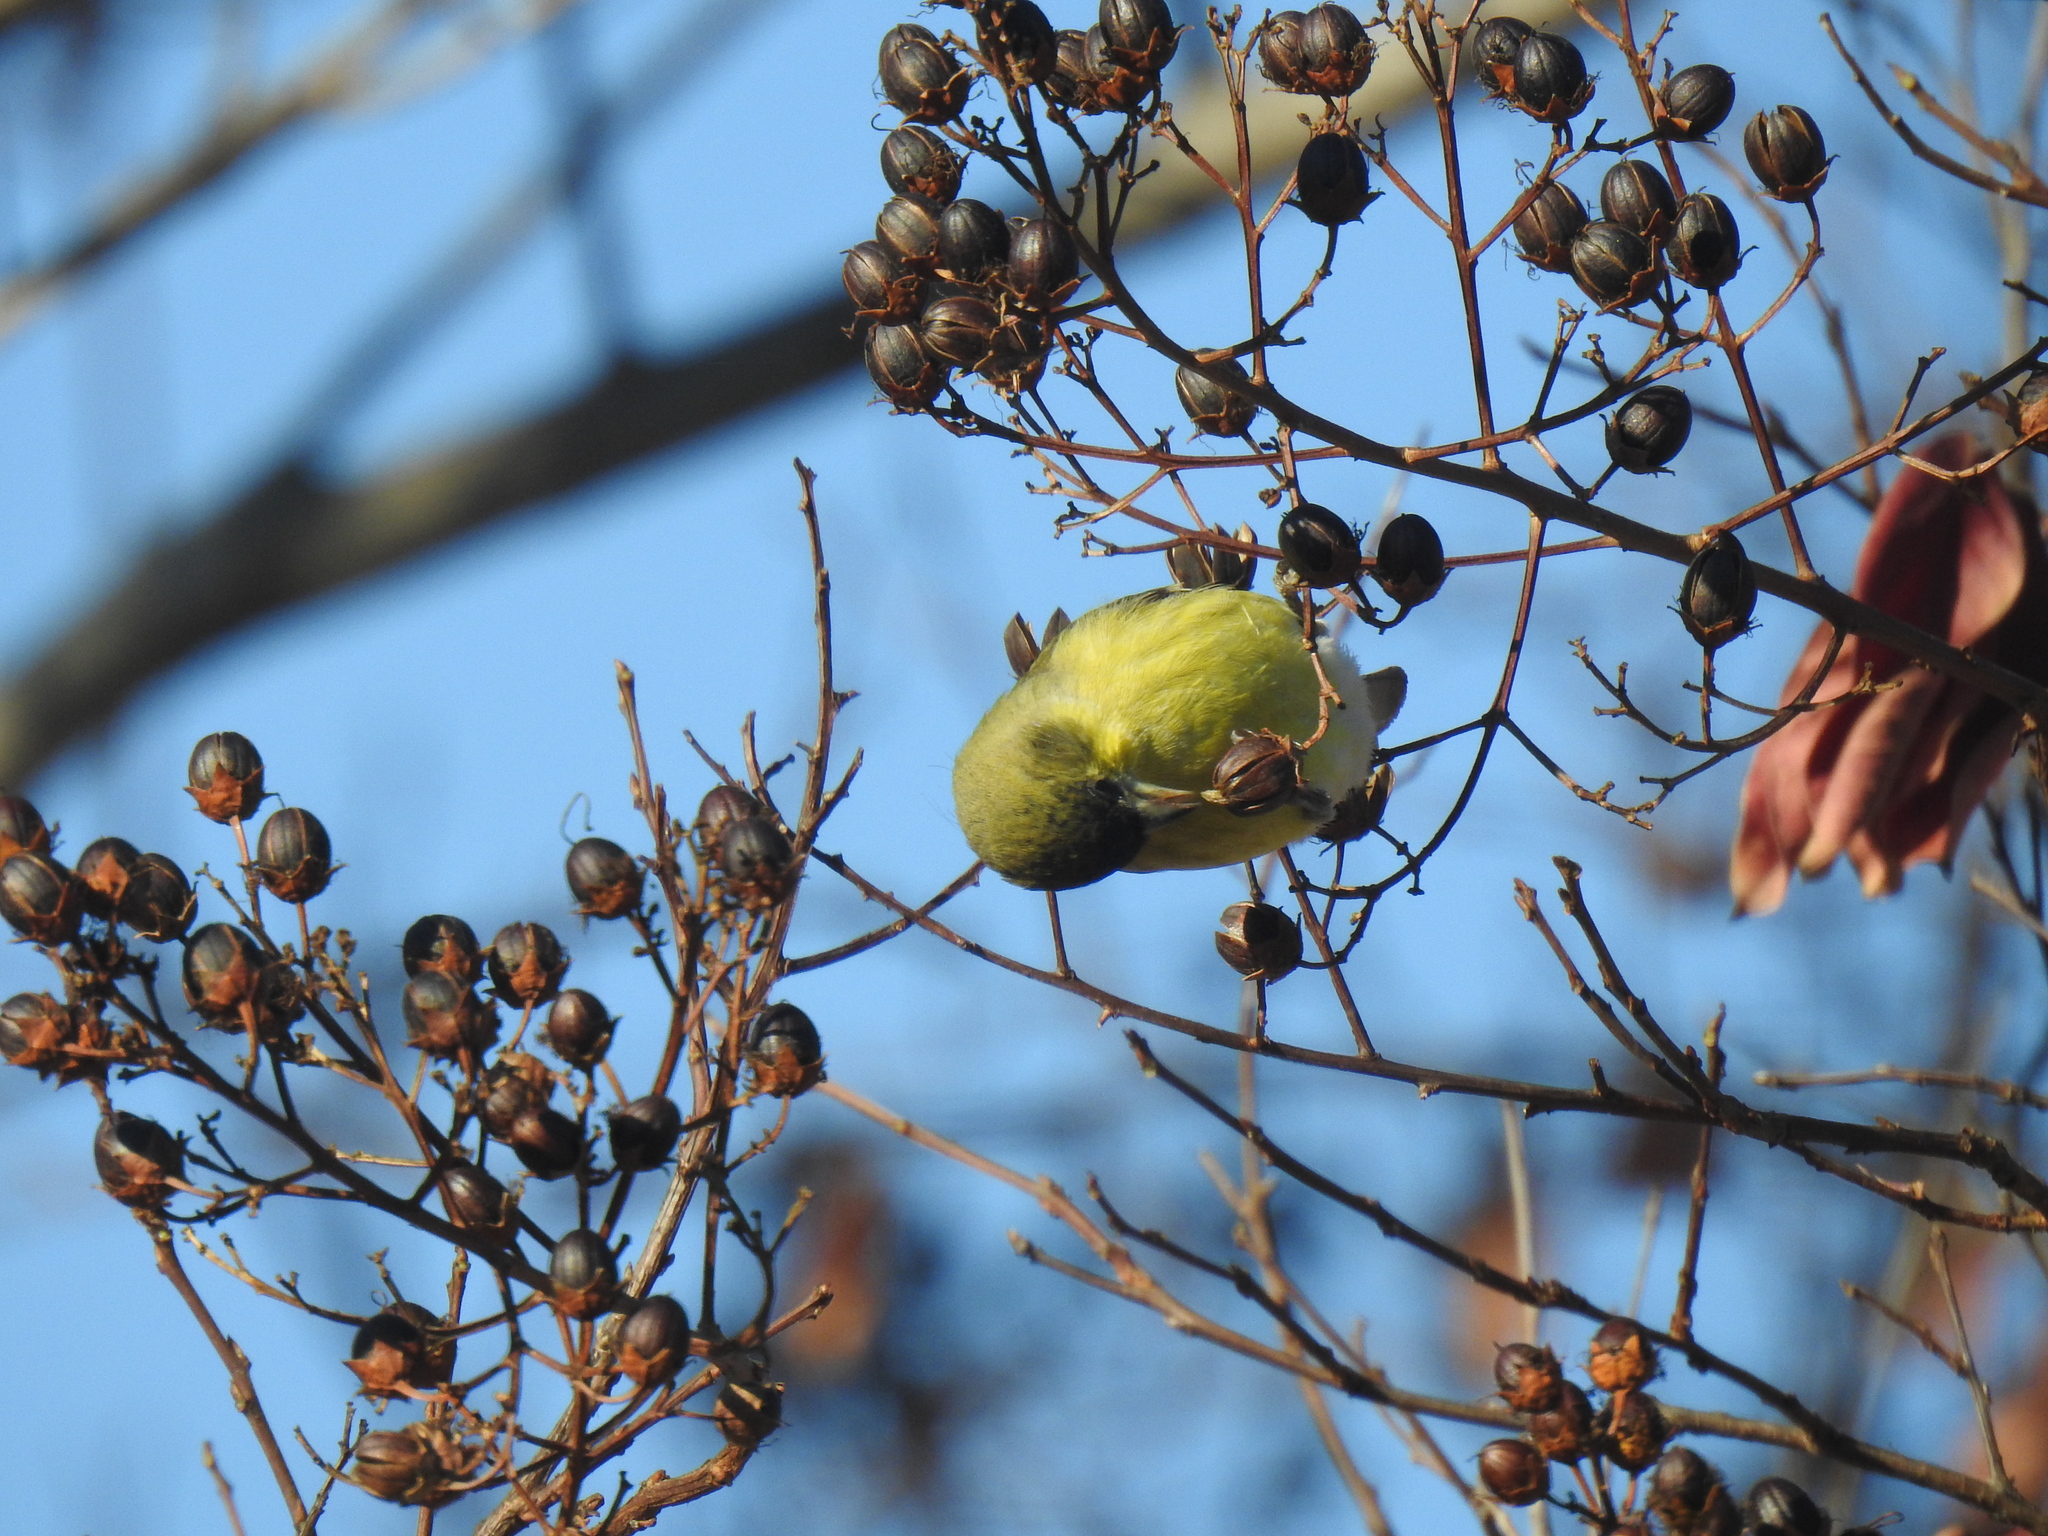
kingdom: Animalia
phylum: Chordata
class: Aves
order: Passeriformes
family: Fringillidae
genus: Spinus
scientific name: Spinus psaltria
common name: Lesser goldfinch
